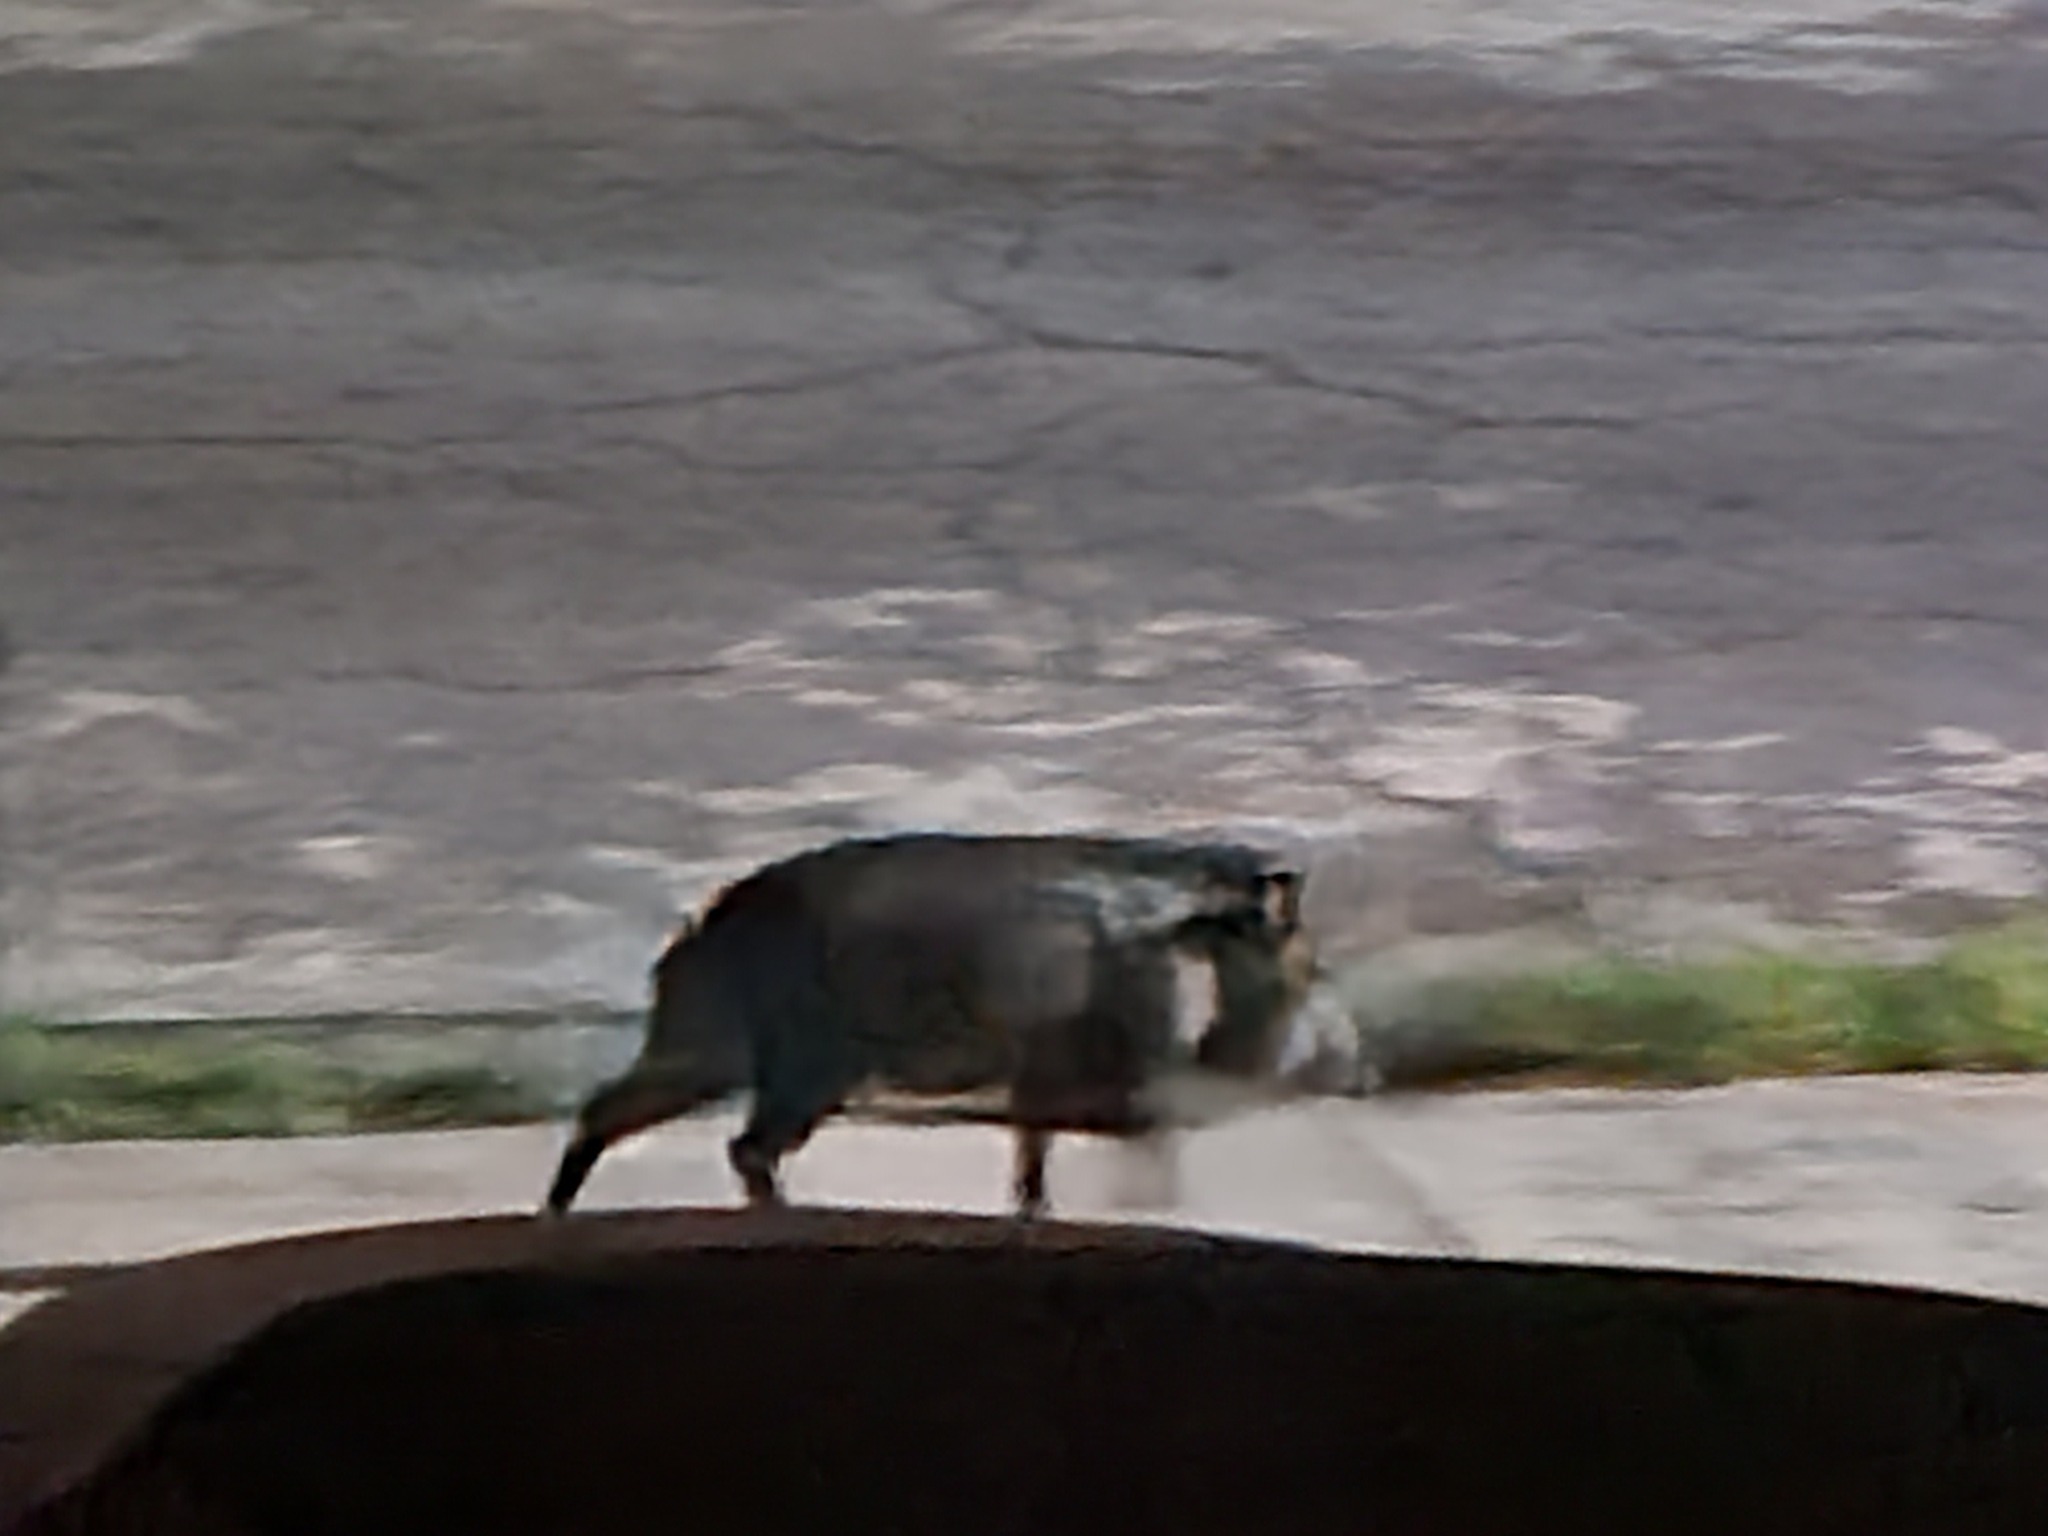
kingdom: Animalia
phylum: Chordata
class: Mammalia
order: Artiodactyla
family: Tayassuidae
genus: Pecari
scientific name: Pecari tajacu
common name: Collared peccary
